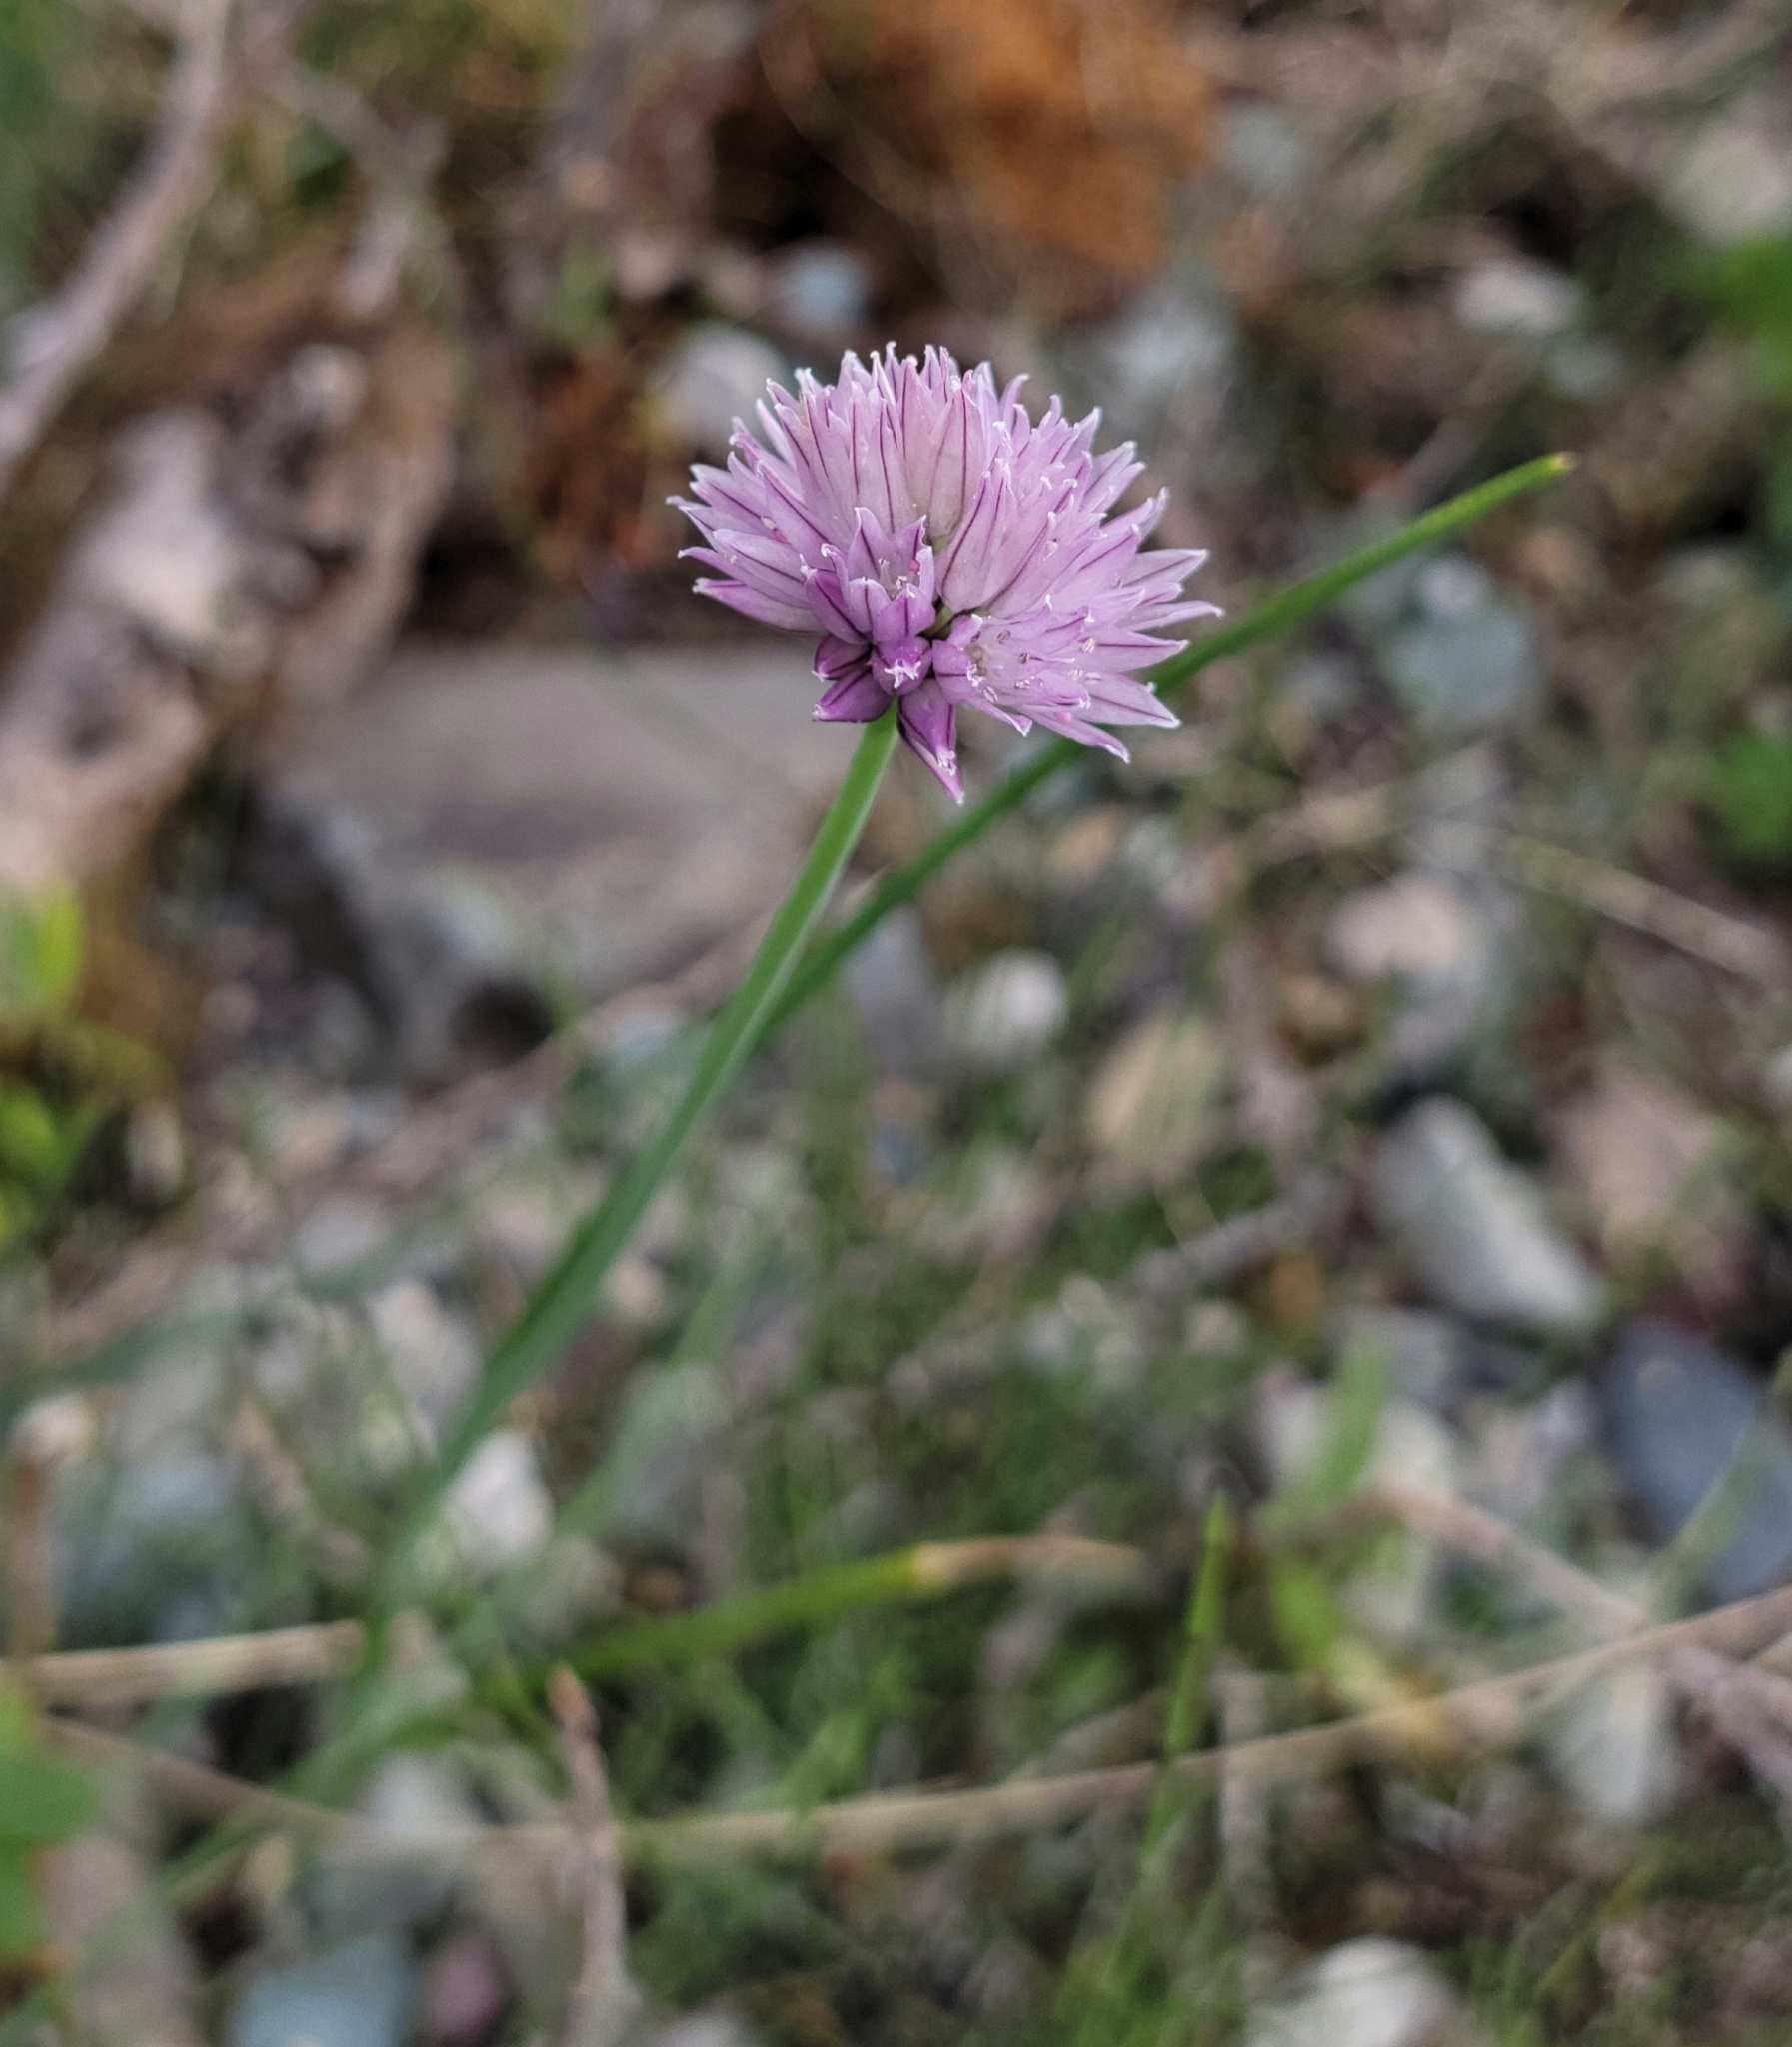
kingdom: Plantae
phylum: Tracheophyta
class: Liliopsida
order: Asparagales
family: Amaryllidaceae
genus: Allium
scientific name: Allium schoenoprasum
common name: Chives
